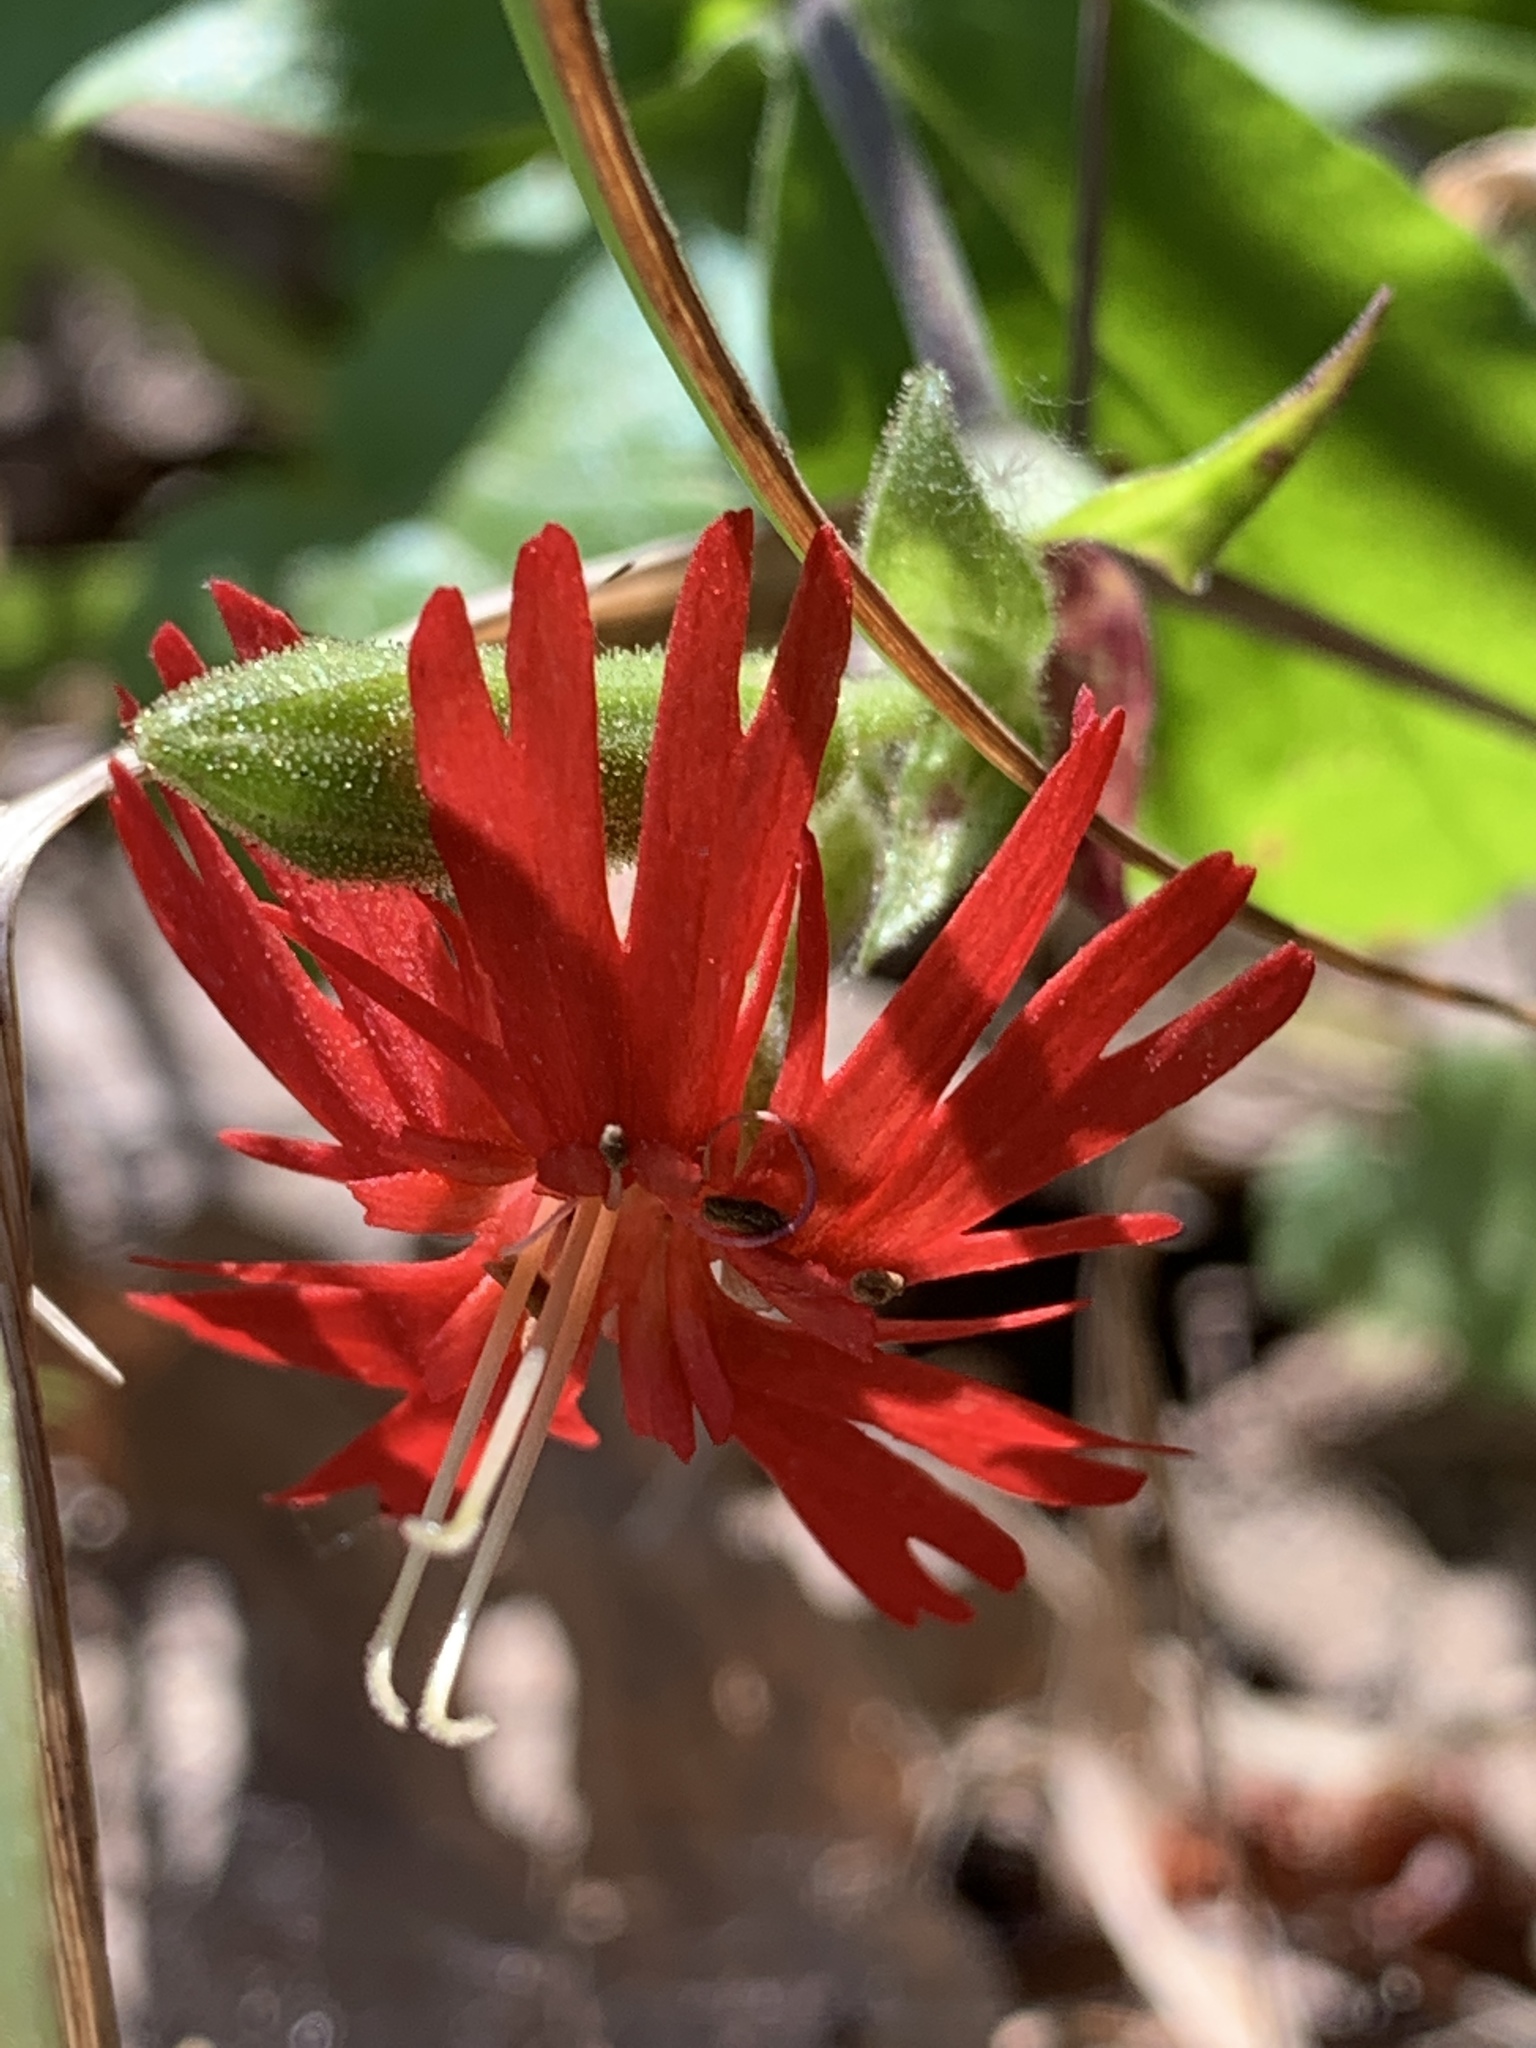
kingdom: Plantae
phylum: Tracheophyta
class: Magnoliopsida
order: Caryophyllales
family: Caryophyllaceae
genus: Silene
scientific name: Silene laciniata
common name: Indian-pink
